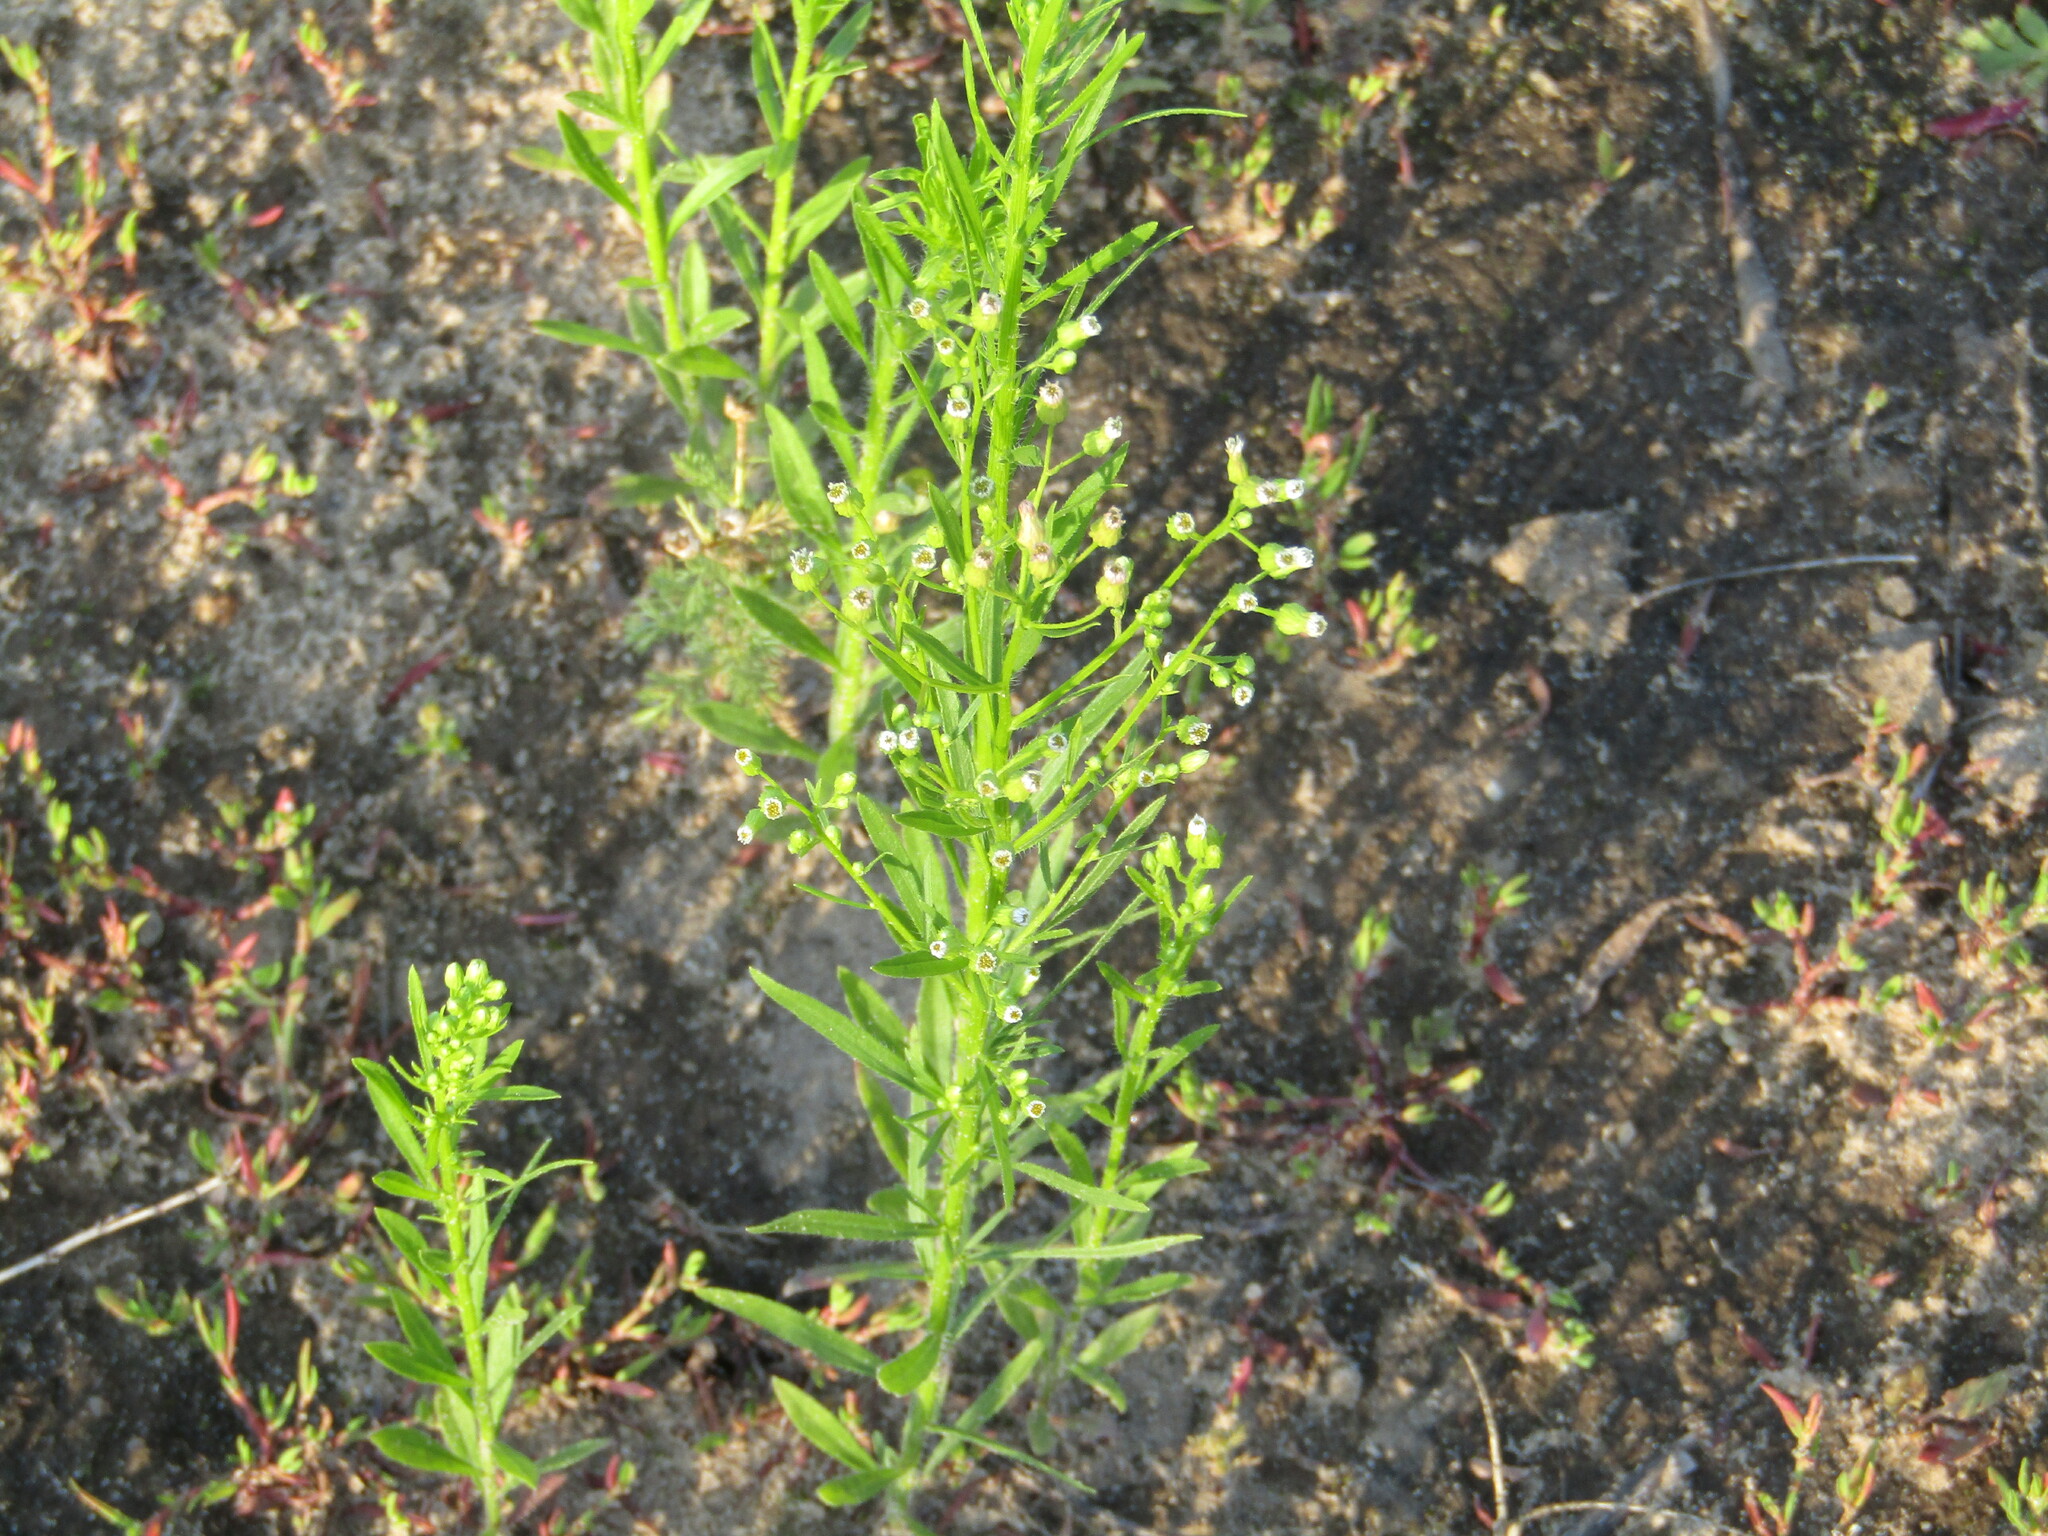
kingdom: Plantae
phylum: Tracheophyta
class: Magnoliopsida
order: Asterales
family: Asteraceae
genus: Erigeron
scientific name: Erigeron canadensis
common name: Canadian fleabane
